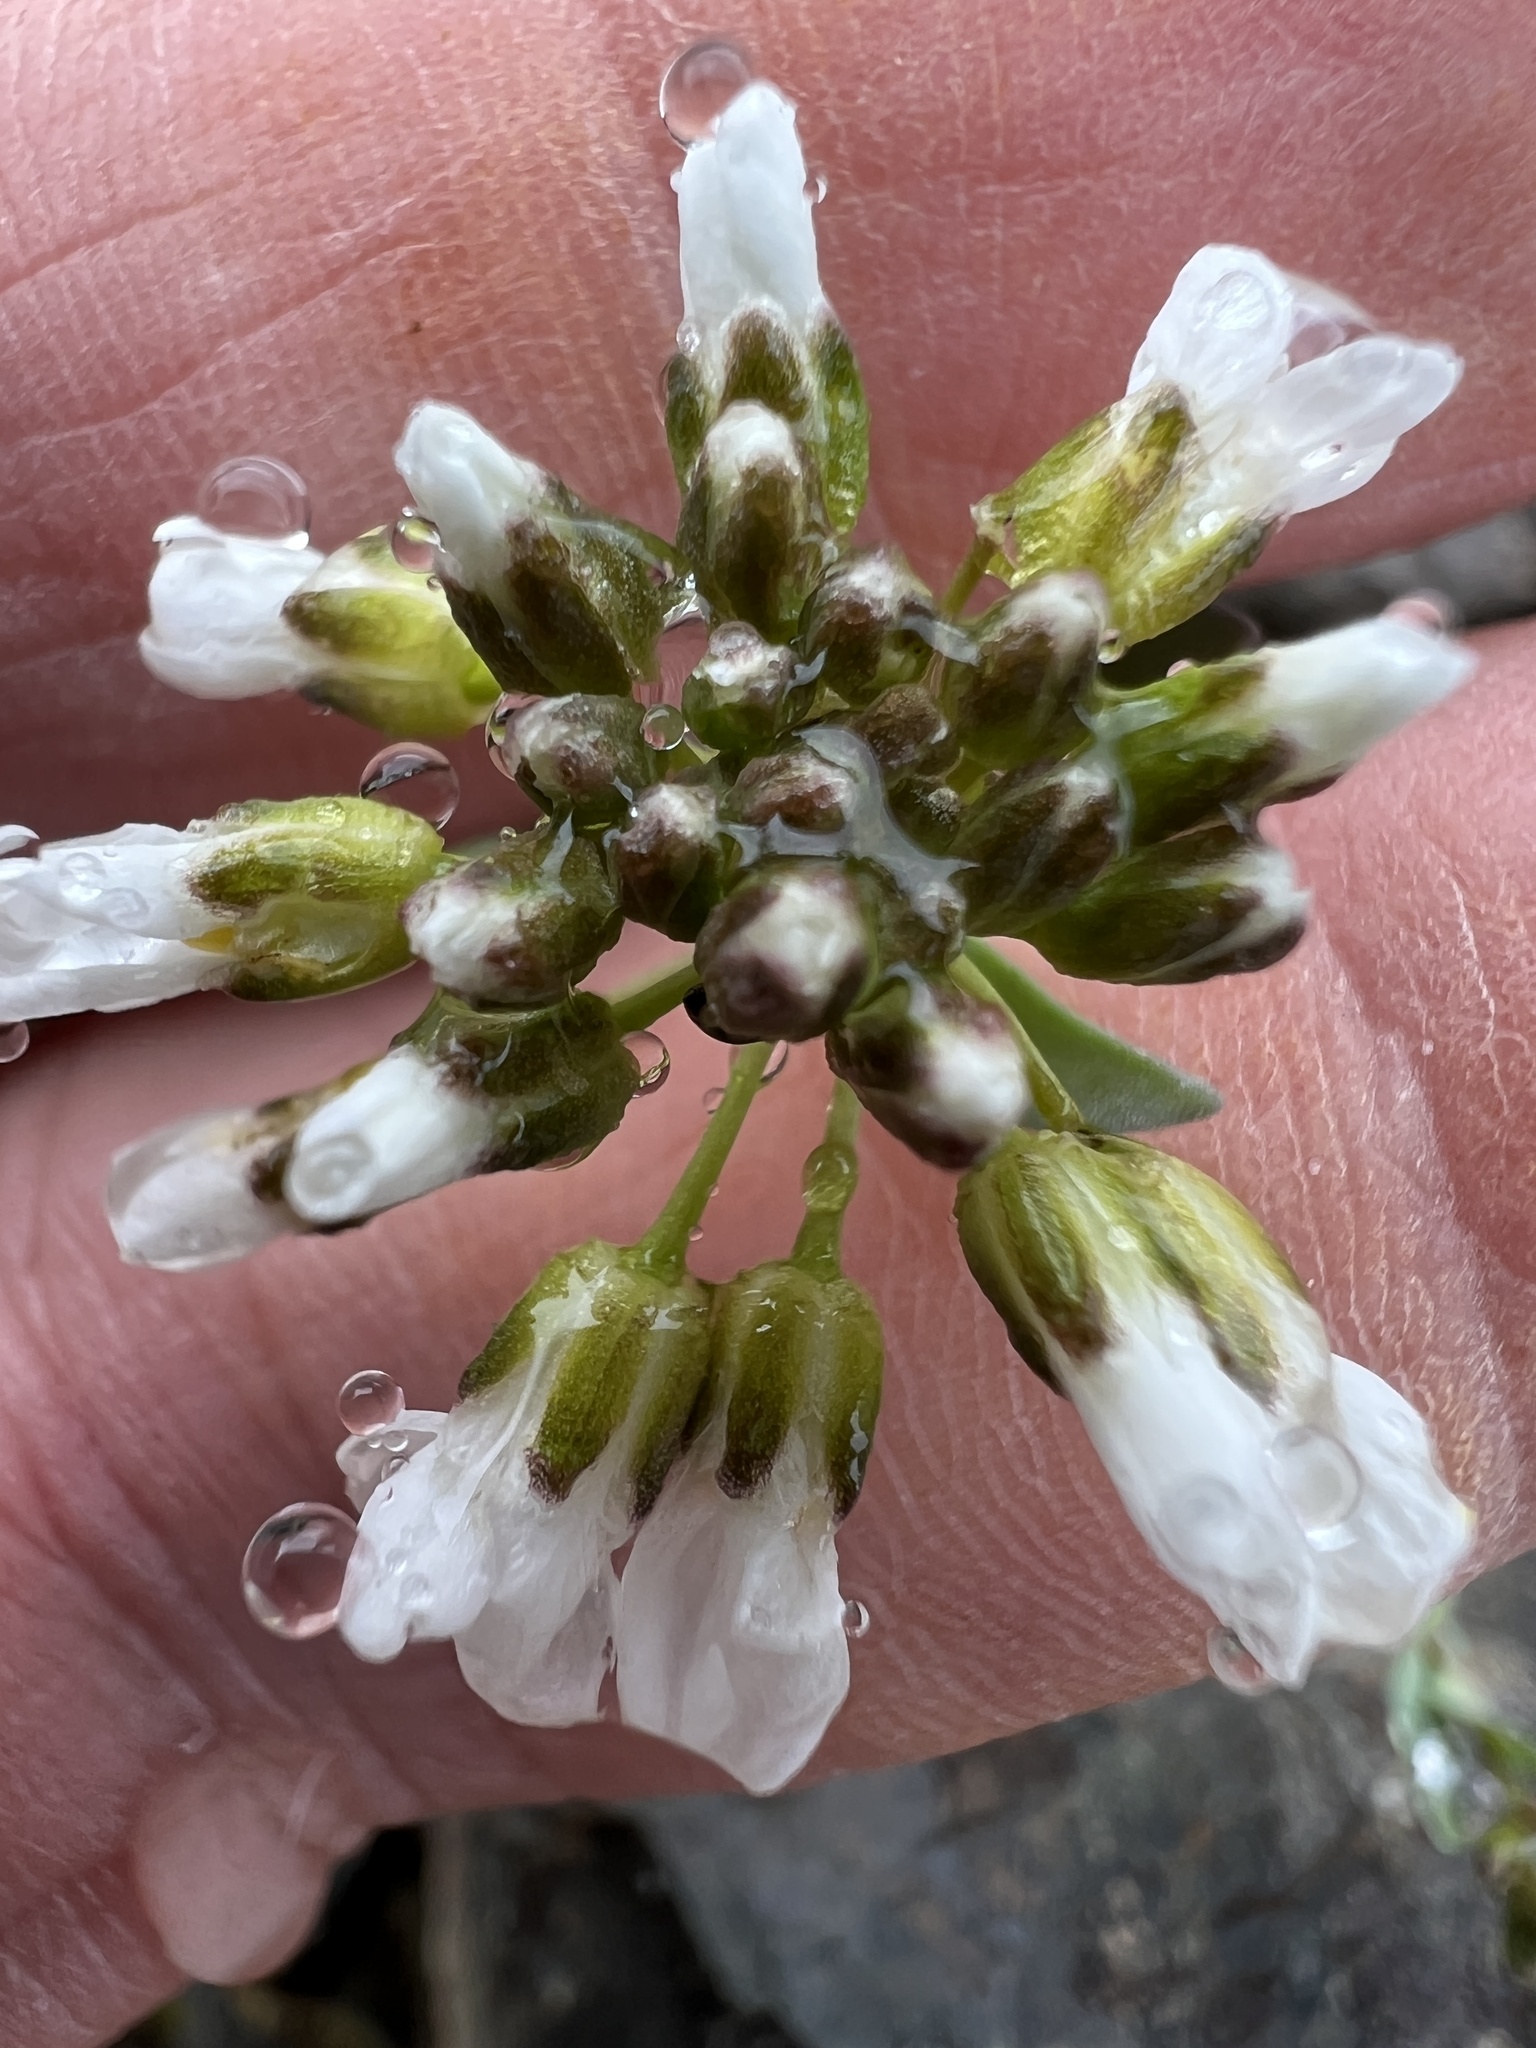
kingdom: Plantae
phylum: Tracheophyta
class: Magnoliopsida
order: Brassicales
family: Brassicaceae
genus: Noccaea
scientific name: Noccaea fendleri
